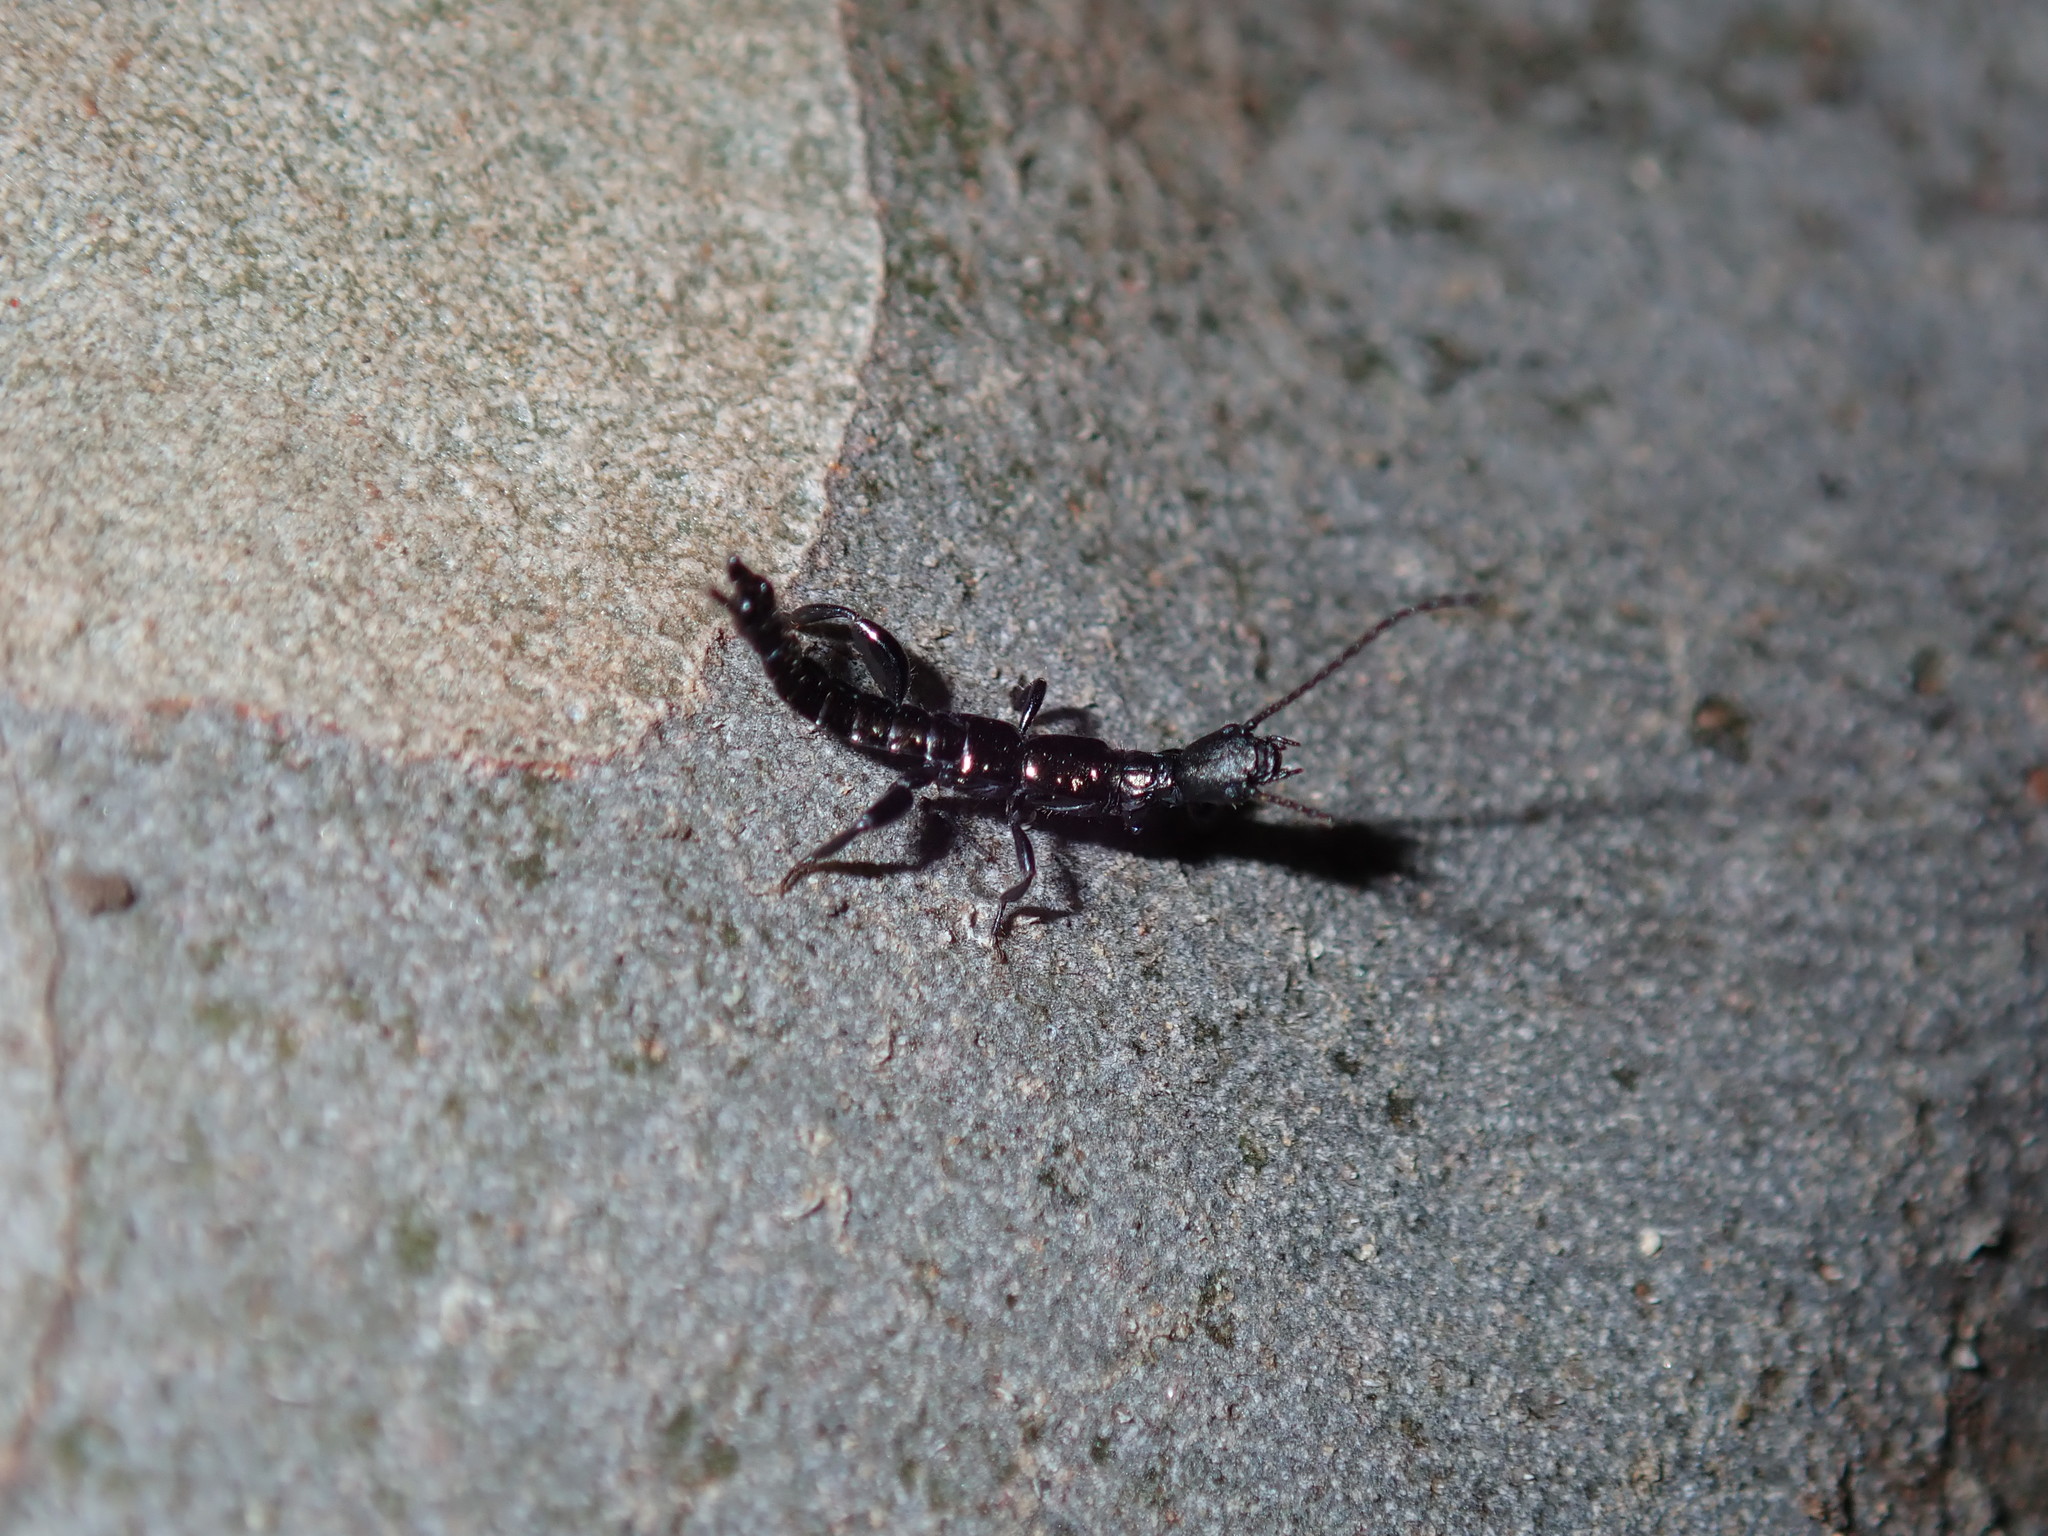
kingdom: Animalia
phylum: Arthropoda
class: Insecta
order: Embioptera
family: Notoligotomidae
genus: Notoligotoma
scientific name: Notoligotoma nitens
